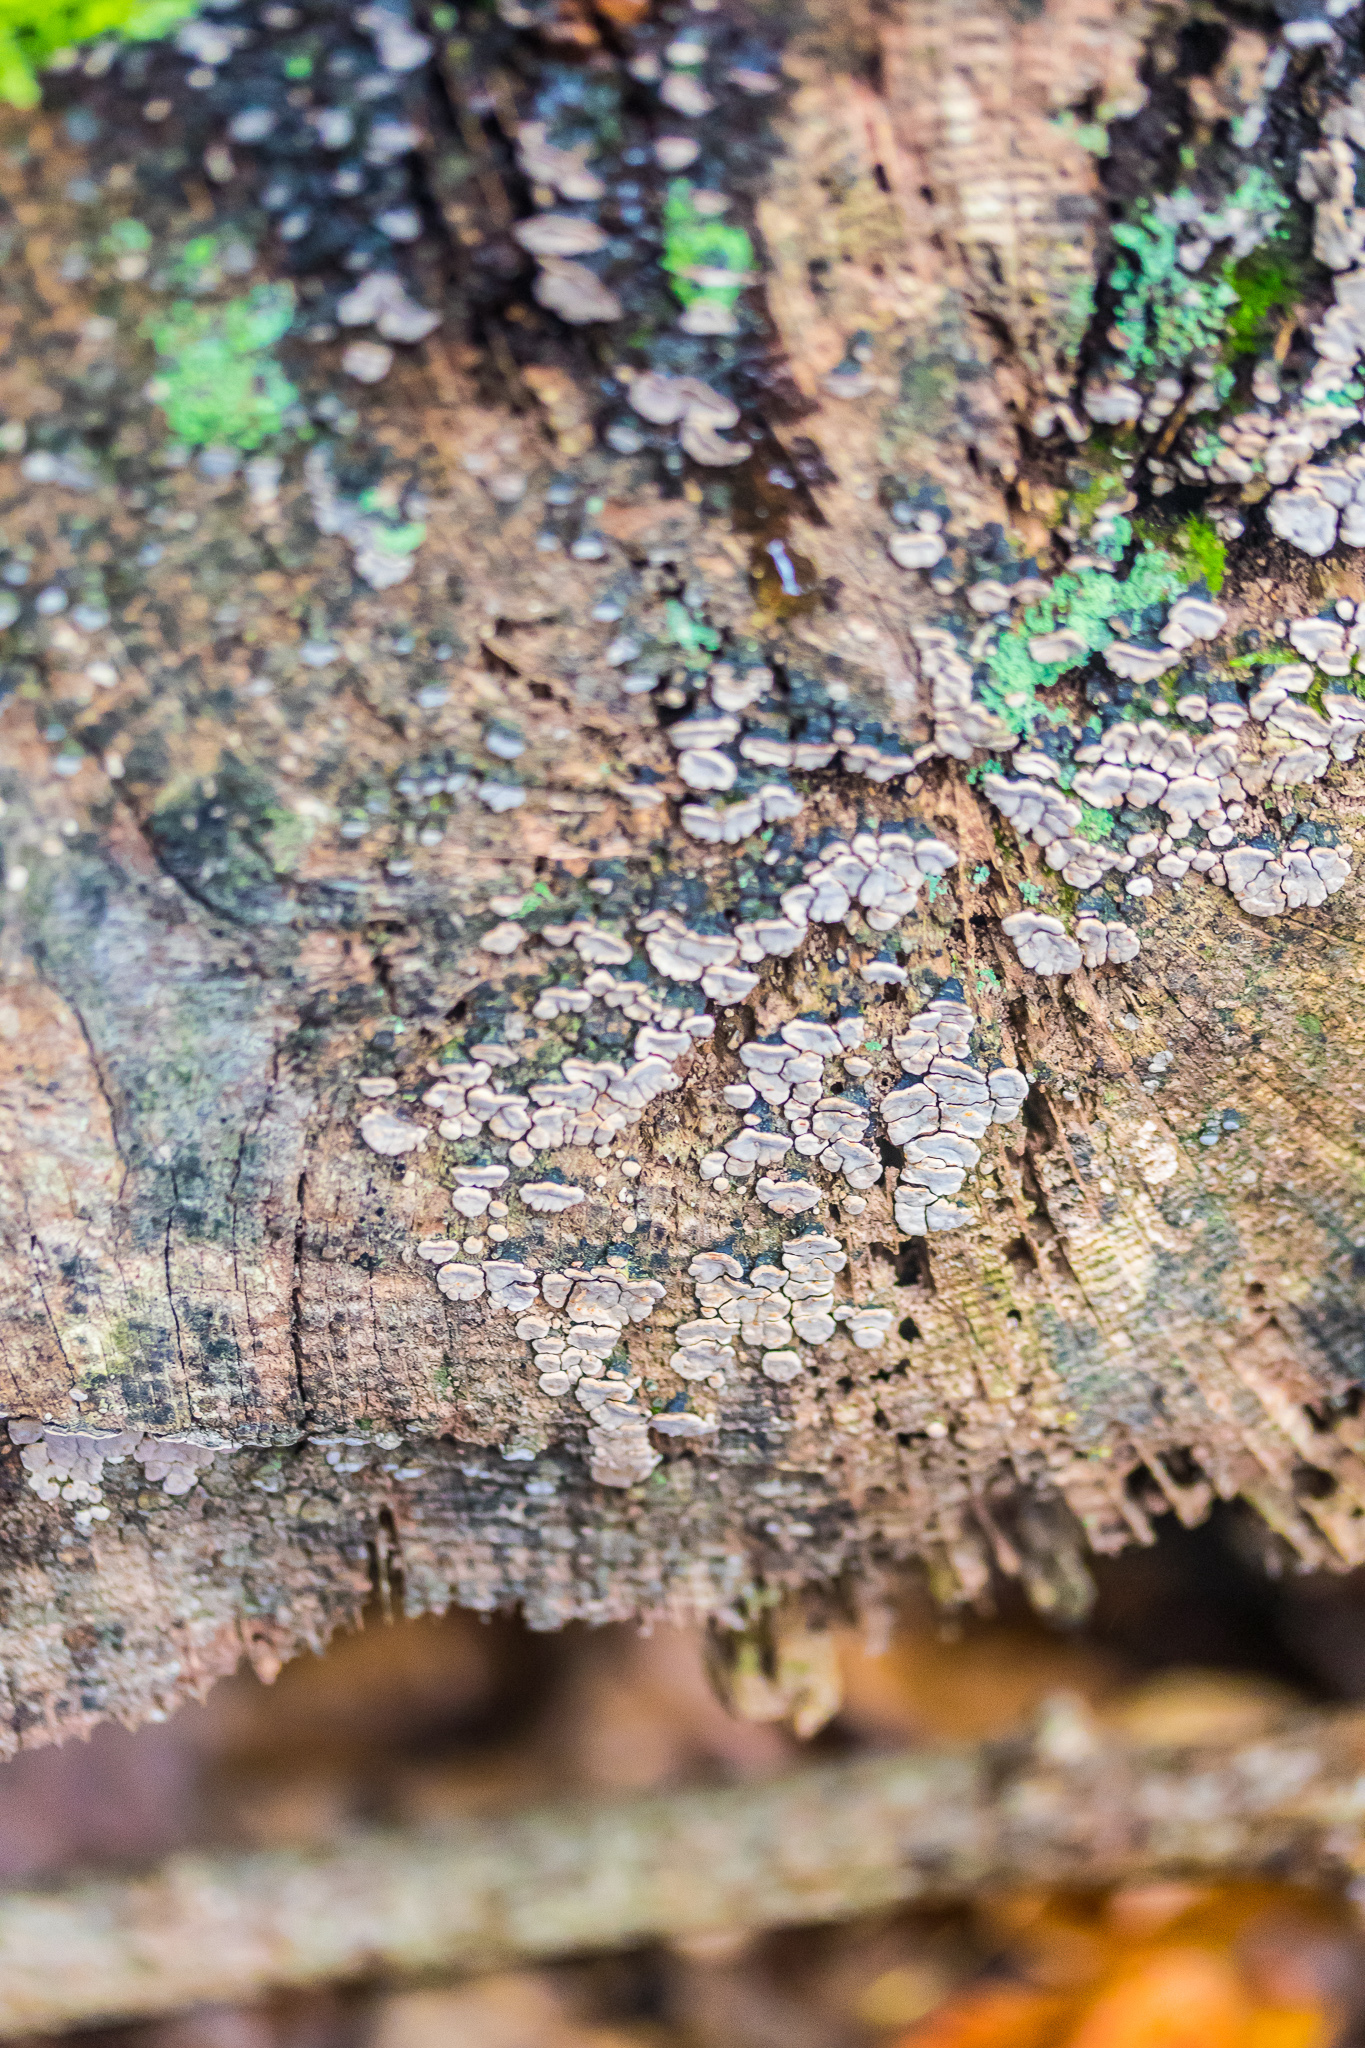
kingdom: Fungi
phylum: Basidiomycota
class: Agaricomycetes
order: Russulales
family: Stereaceae
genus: Xylobolus
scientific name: Xylobolus frustulatus
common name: Ceramic parchment
